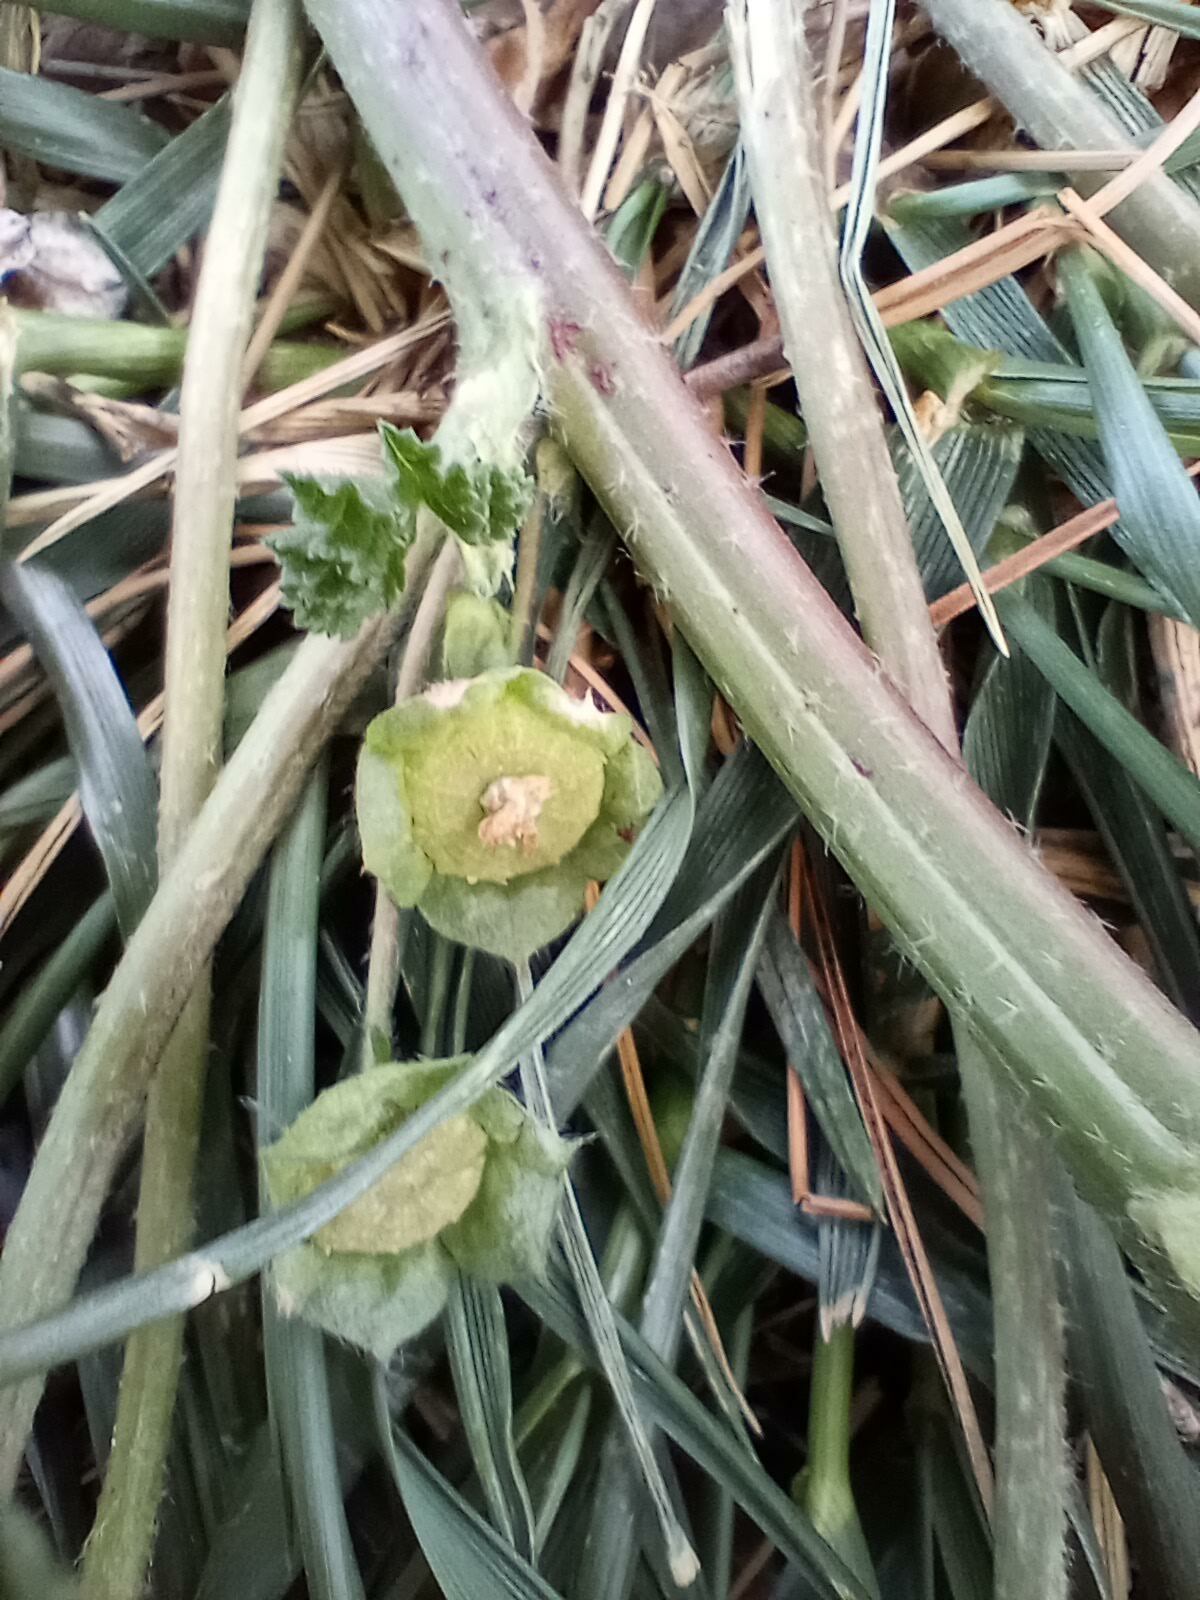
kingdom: Plantae
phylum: Tracheophyta
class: Magnoliopsida
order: Malvales
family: Malvaceae
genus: Malva
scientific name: Malva parviflora
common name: Least mallow
